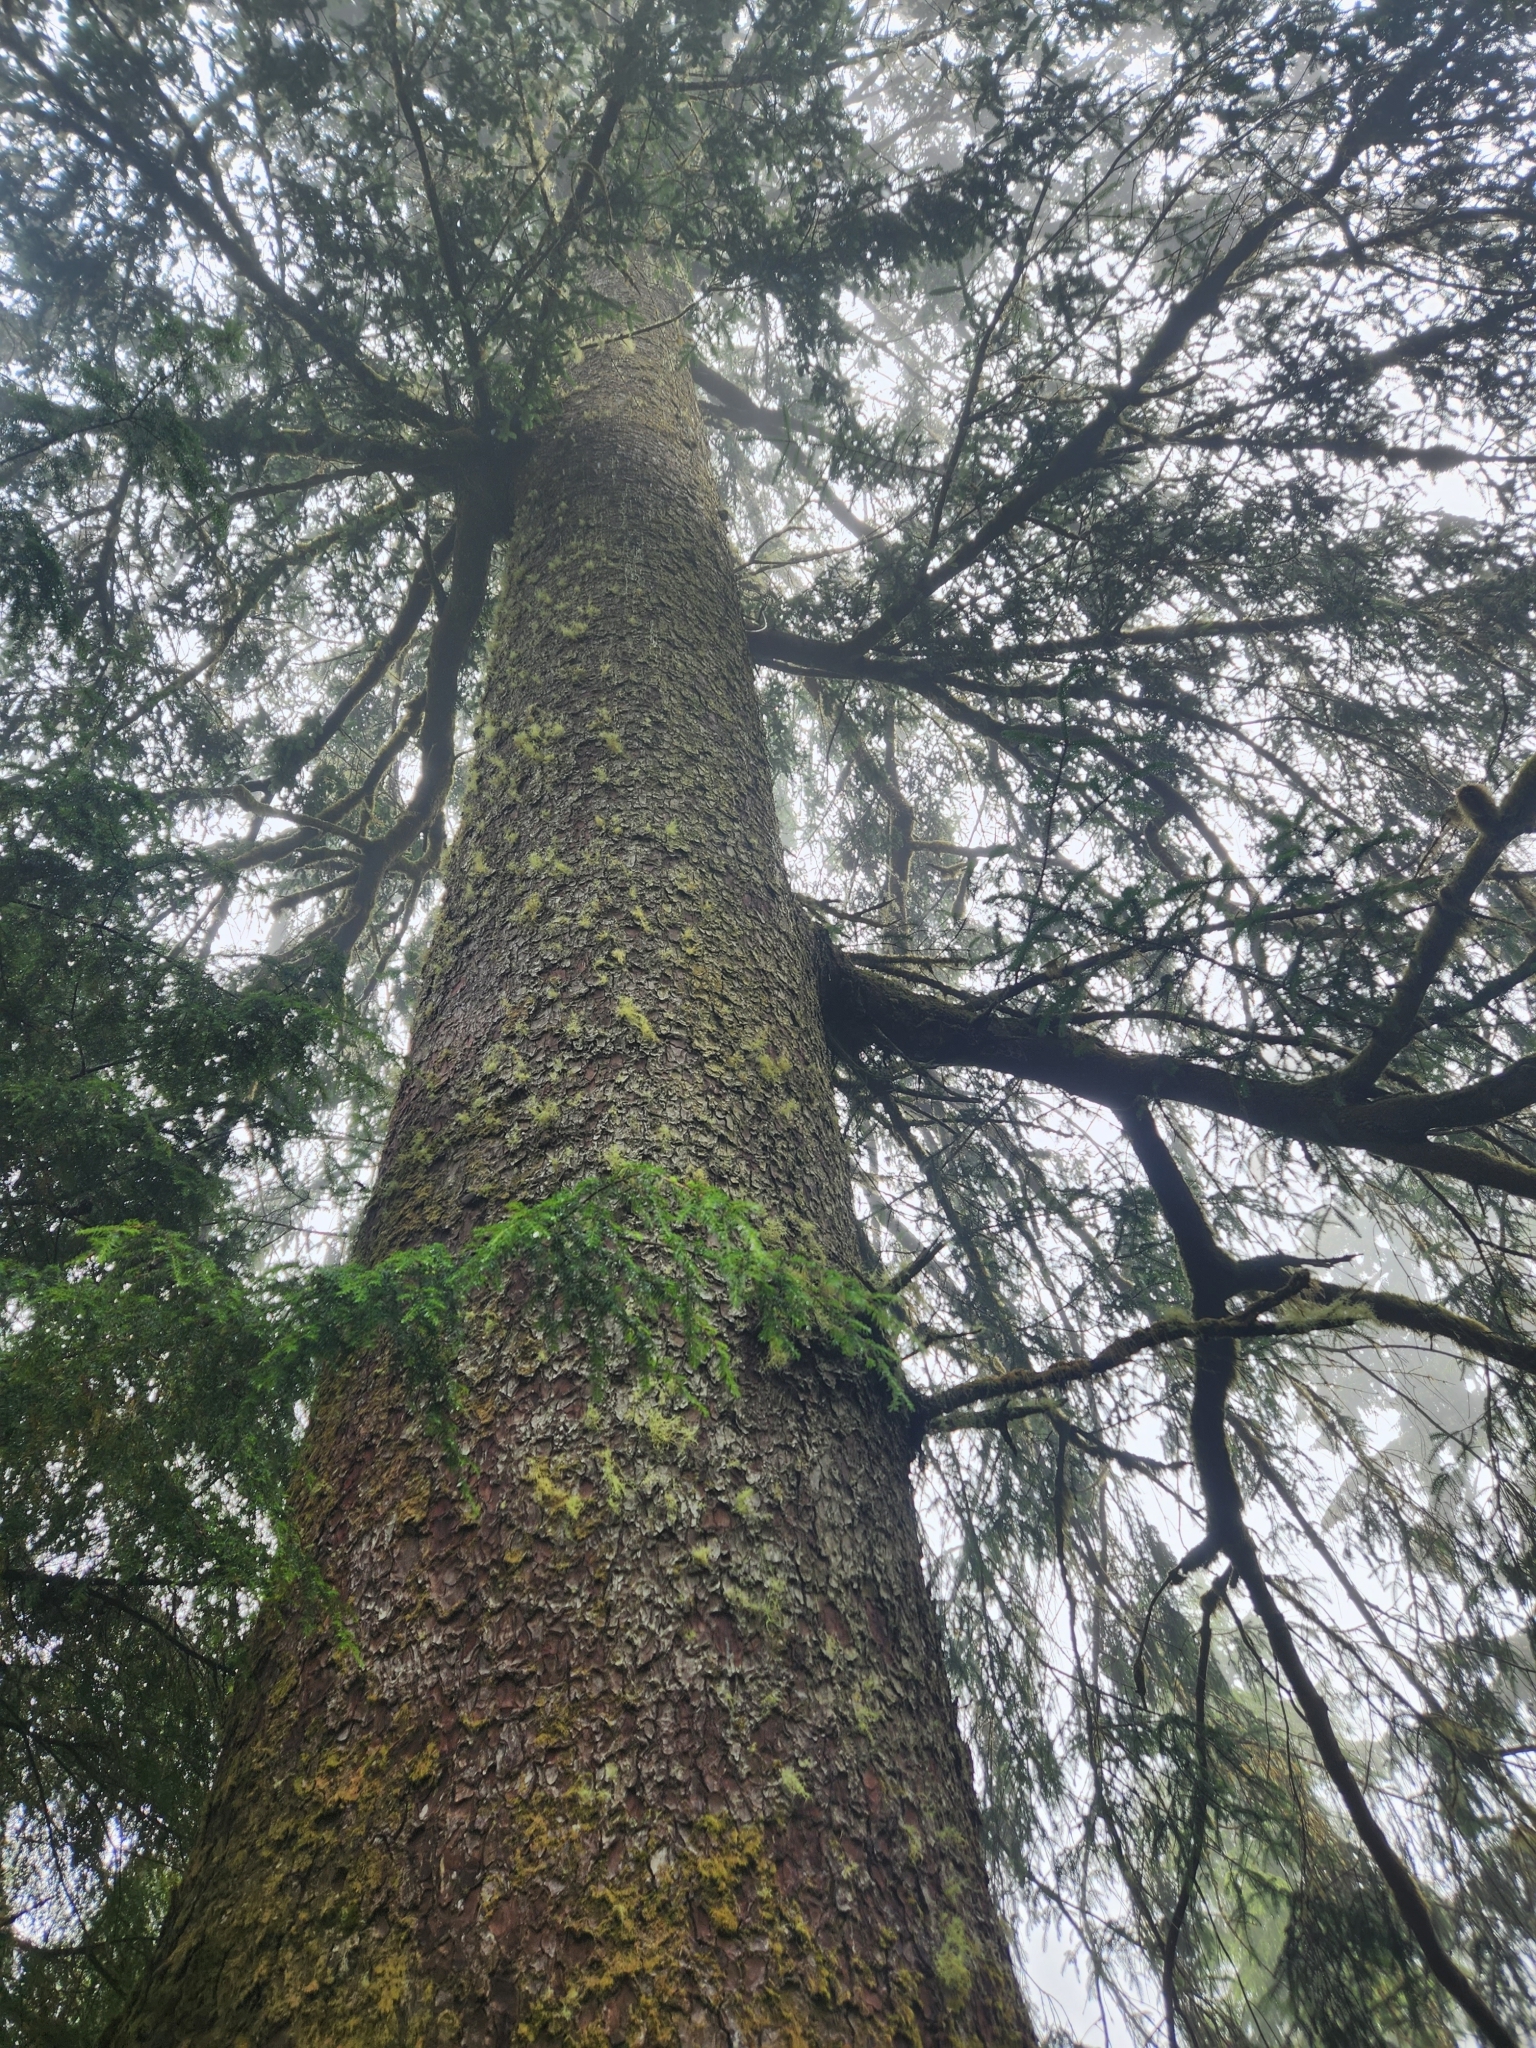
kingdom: Plantae
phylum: Tracheophyta
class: Pinopsida
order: Pinales
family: Pinaceae
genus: Picea
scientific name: Picea sitchensis
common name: Sitka spruce
